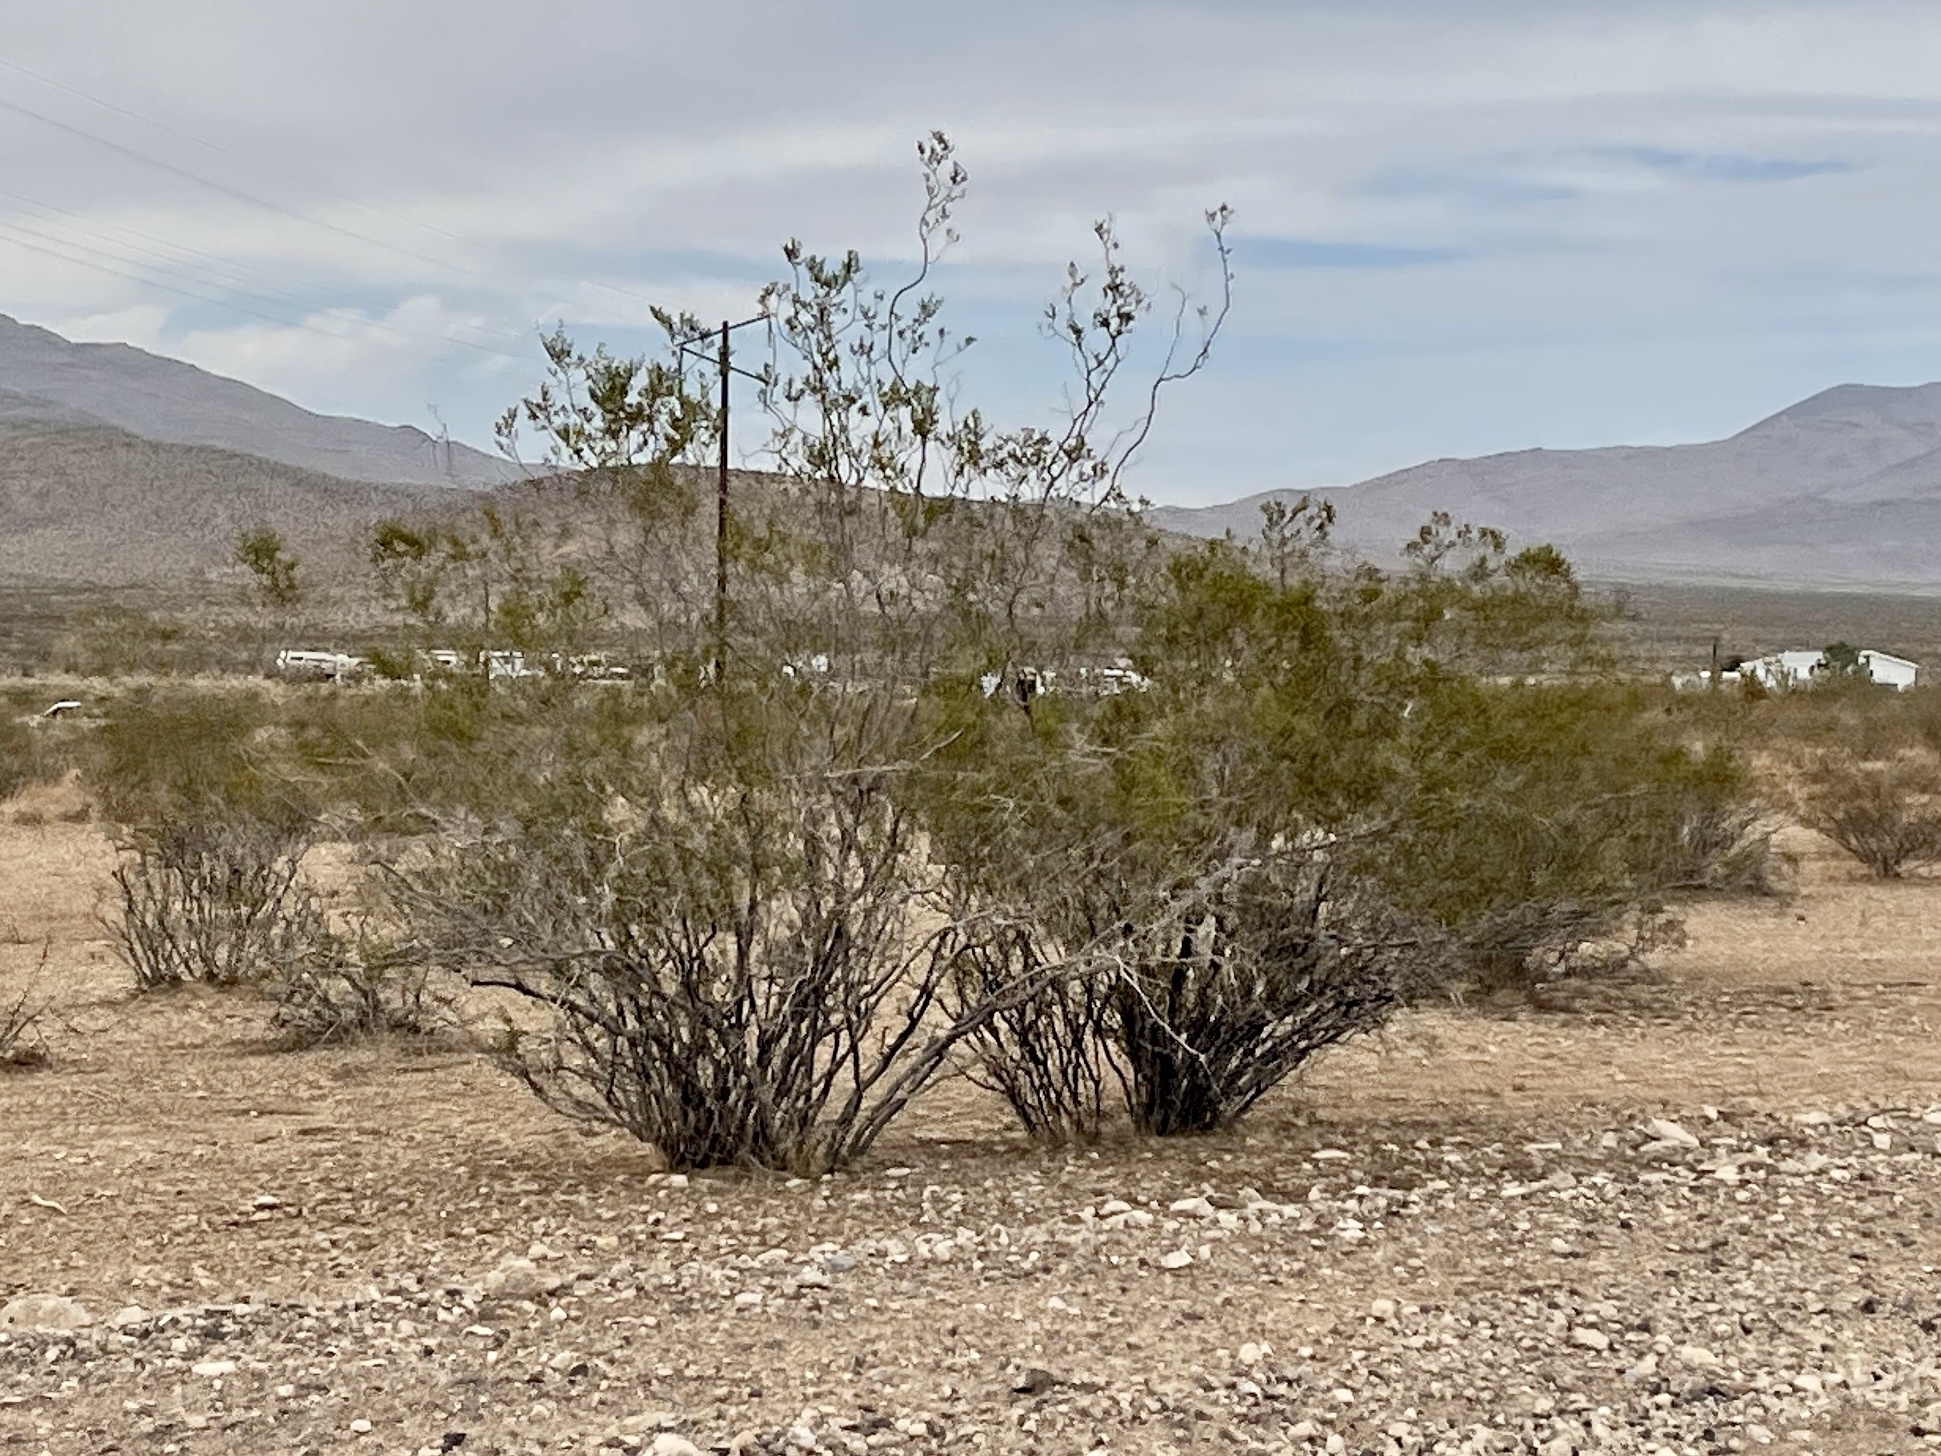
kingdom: Plantae
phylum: Tracheophyta
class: Magnoliopsida
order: Zygophyllales
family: Zygophyllaceae
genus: Larrea
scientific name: Larrea tridentata
